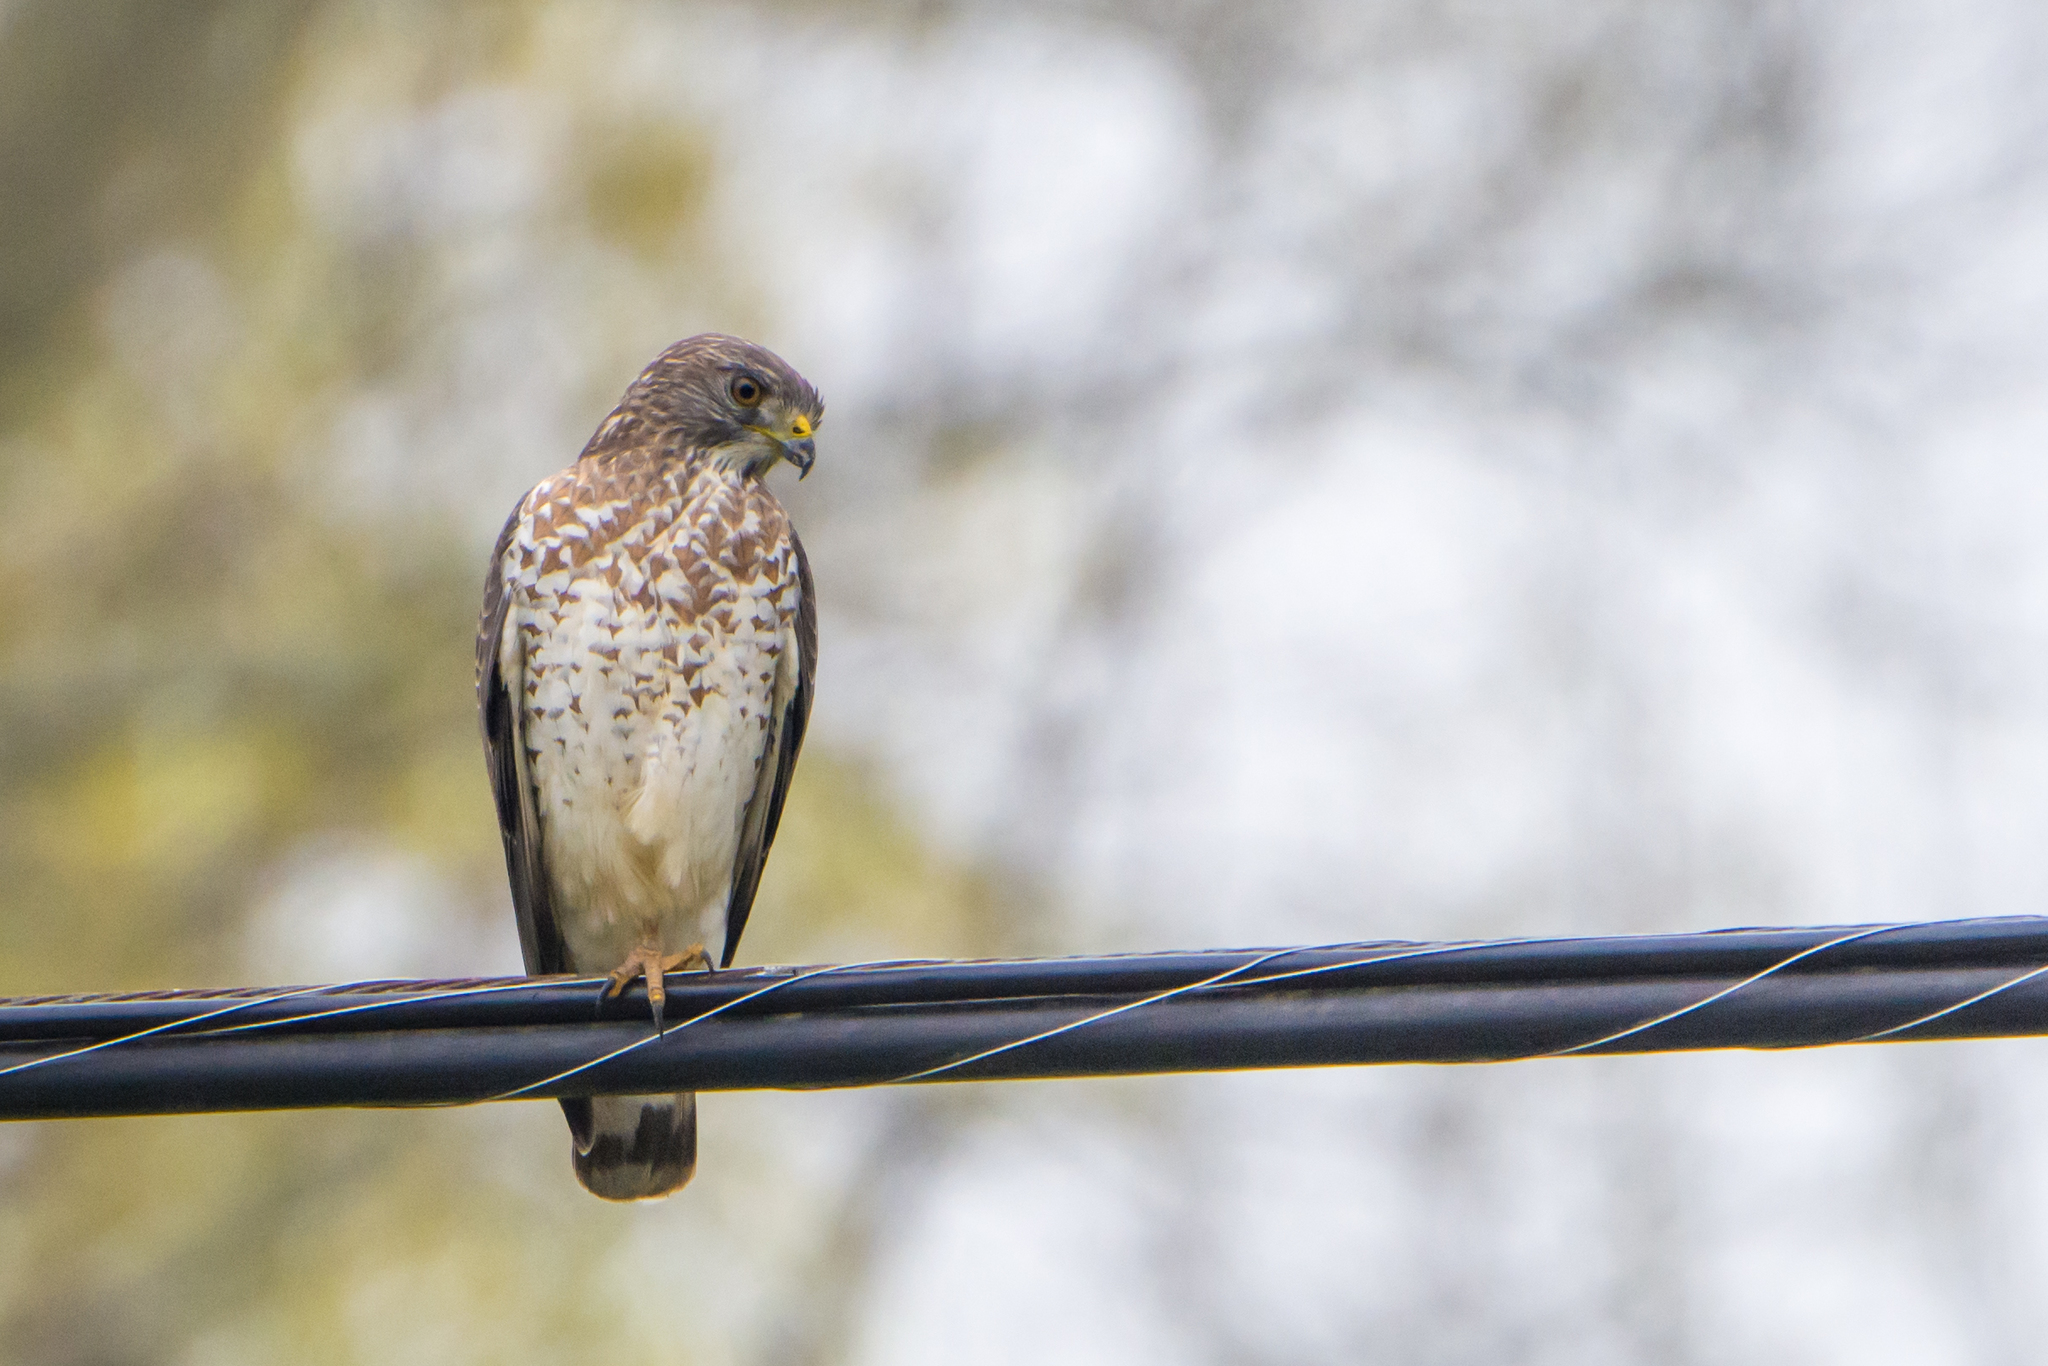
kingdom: Animalia
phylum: Chordata
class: Aves
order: Accipitriformes
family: Accipitridae
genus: Buteo
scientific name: Buteo platypterus
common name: Broad-winged hawk
